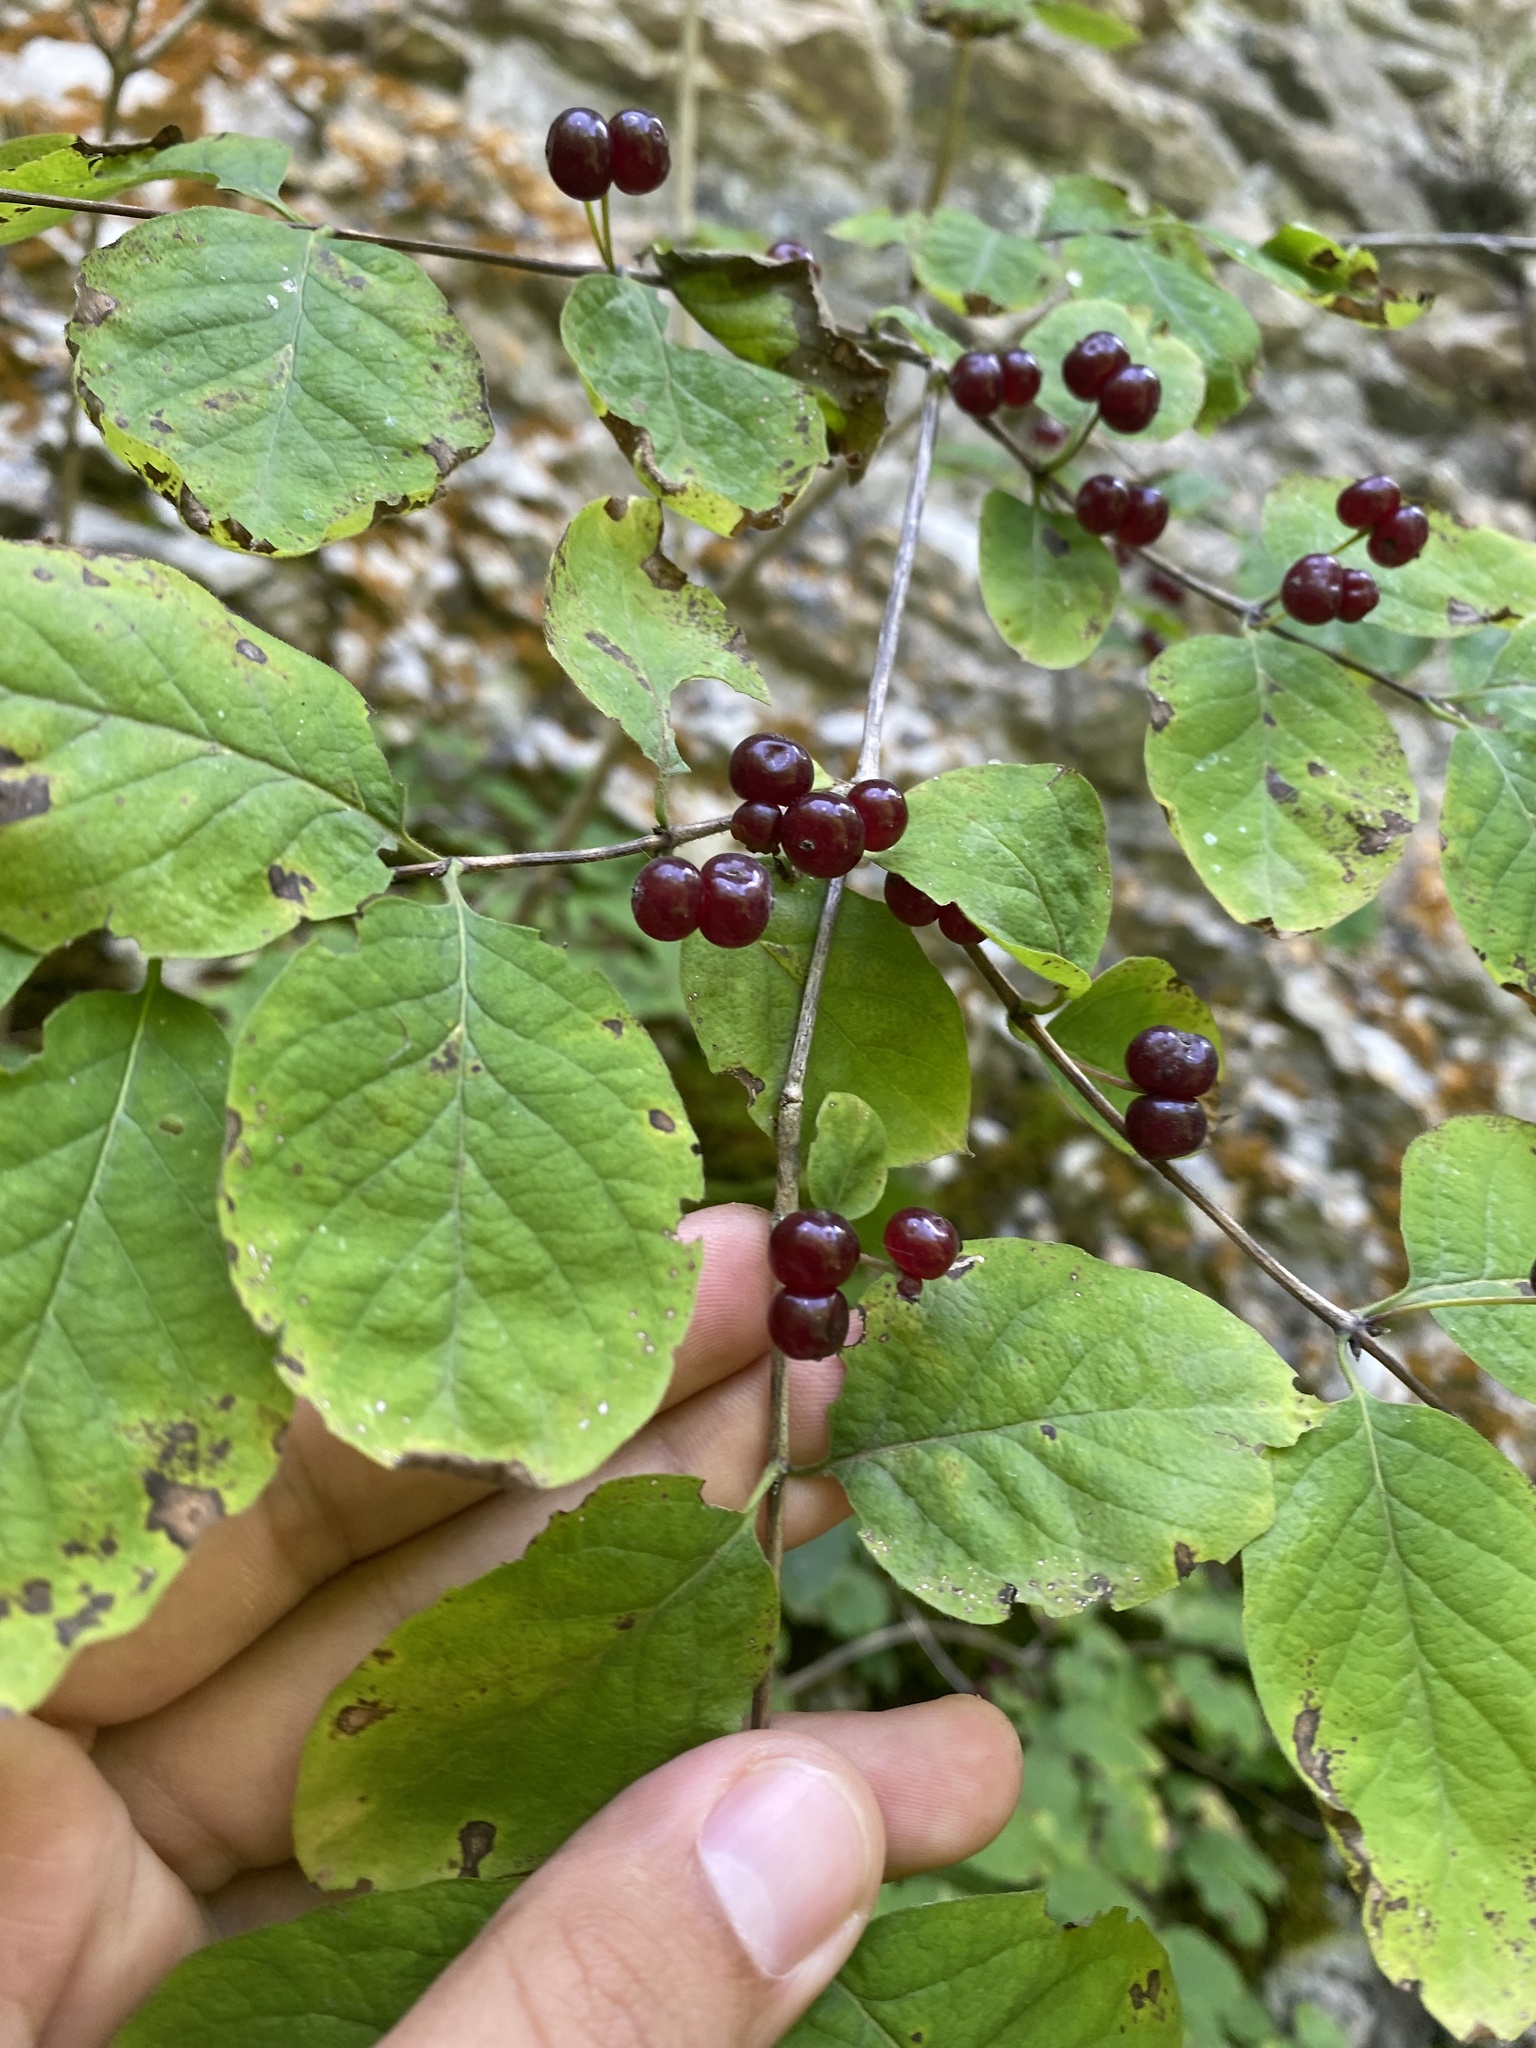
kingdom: Plantae
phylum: Tracheophyta
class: Magnoliopsida
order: Dipsacales
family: Caprifoliaceae
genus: Lonicera
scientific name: Lonicera steveniana
